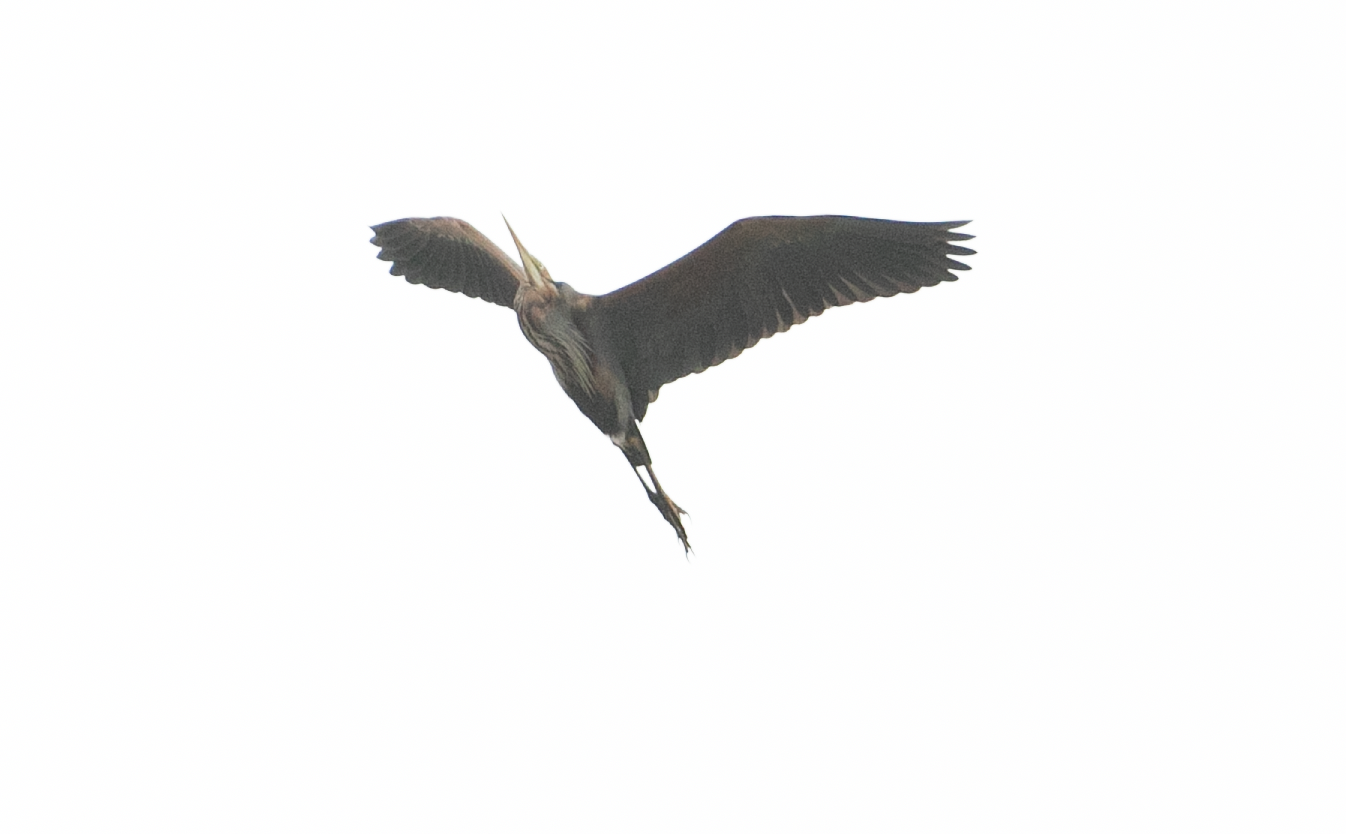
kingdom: Animalia
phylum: Chordata
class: Aves
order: Pelecaniformes
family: Ardeidae
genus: Ardea
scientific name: Ardea purpurea
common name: Purple heron
